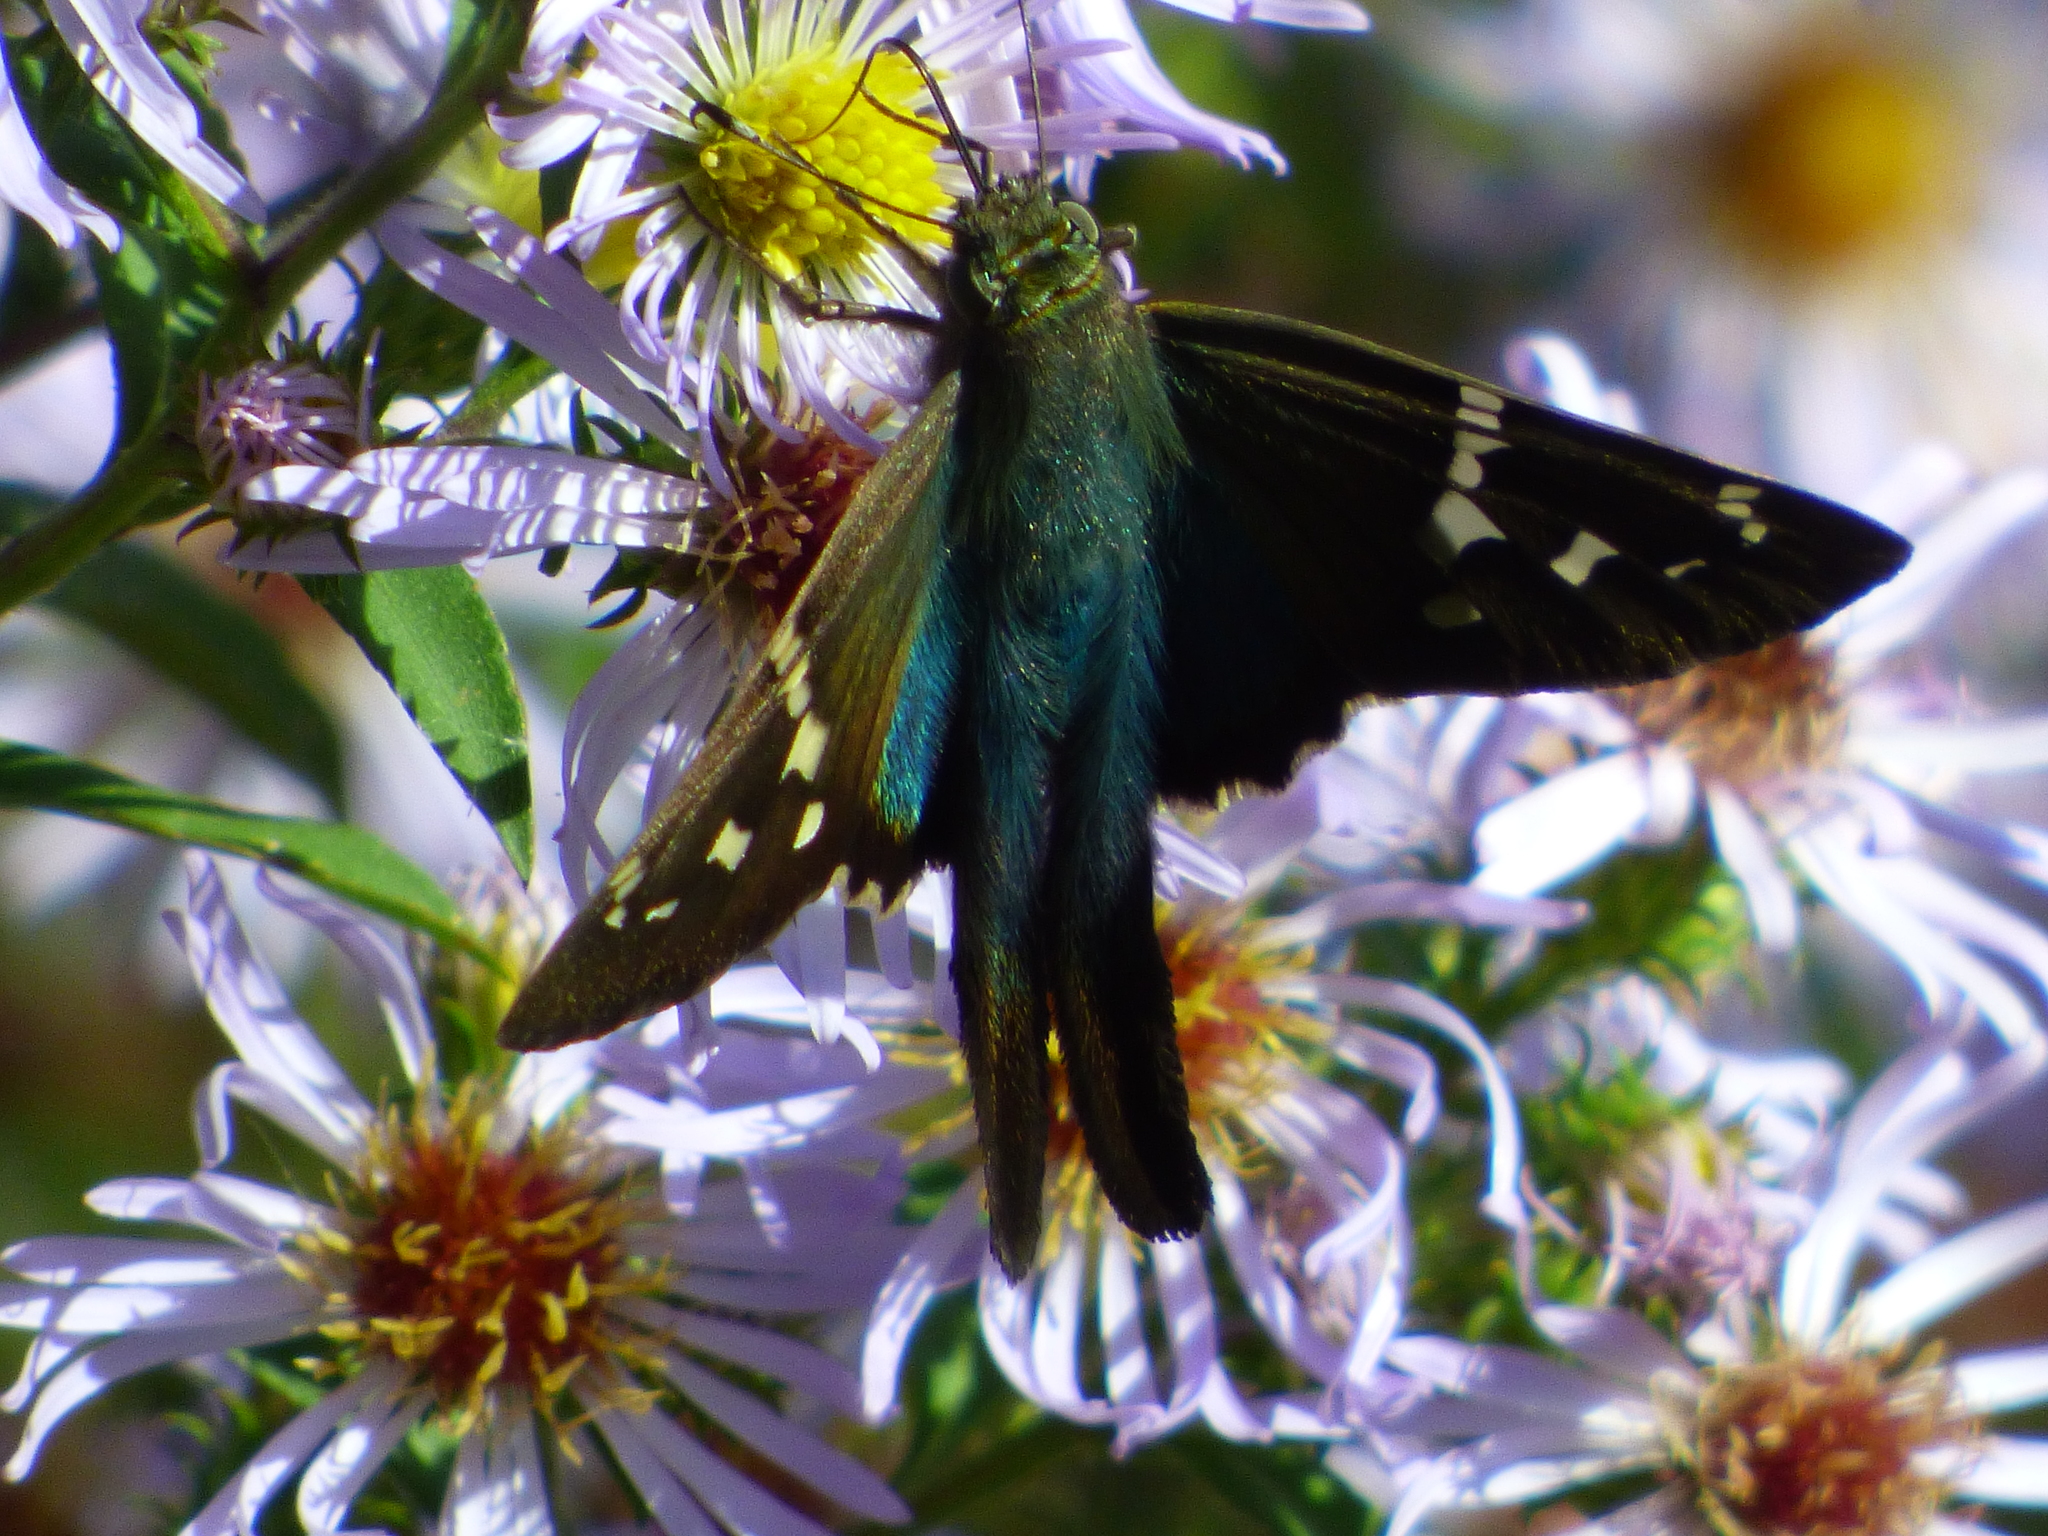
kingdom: Animalia
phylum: Arthropoda
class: Insecta
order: Lepidoptera
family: Hesperiidae
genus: Urbanus
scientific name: Urbanus proteus
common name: Long-tailed skipper
